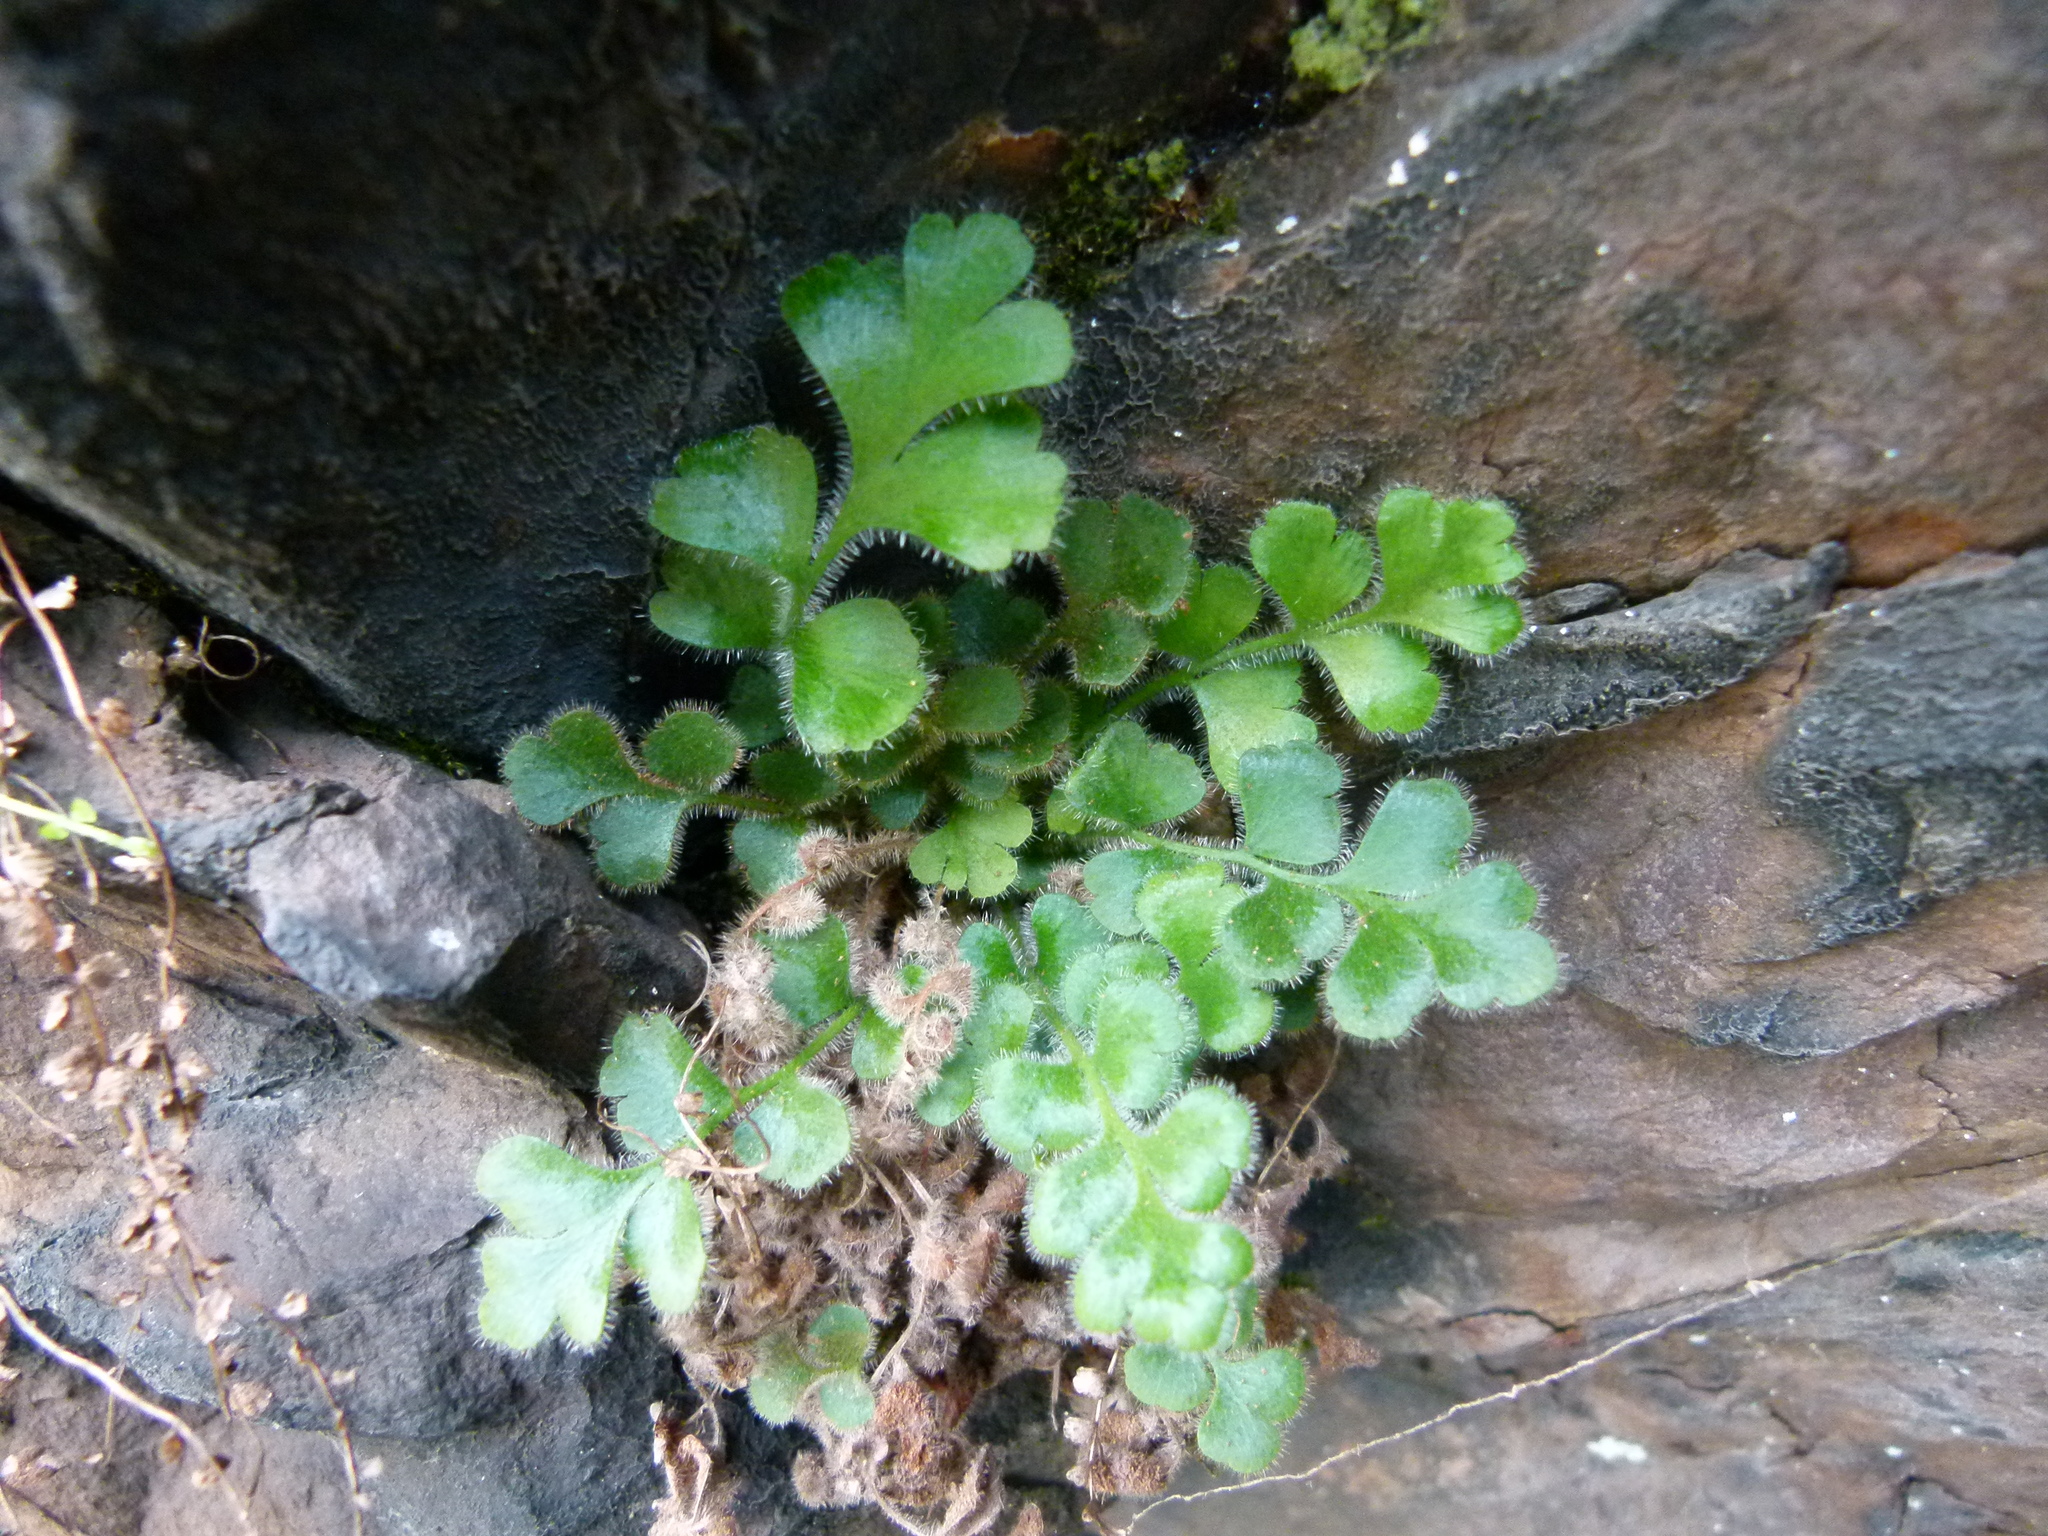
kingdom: Plantae
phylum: Tracheophyta
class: Polypodiopsida
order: Polypodiales
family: Aspleniaceae
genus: Asplenium
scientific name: Asplenium subglandulosum
